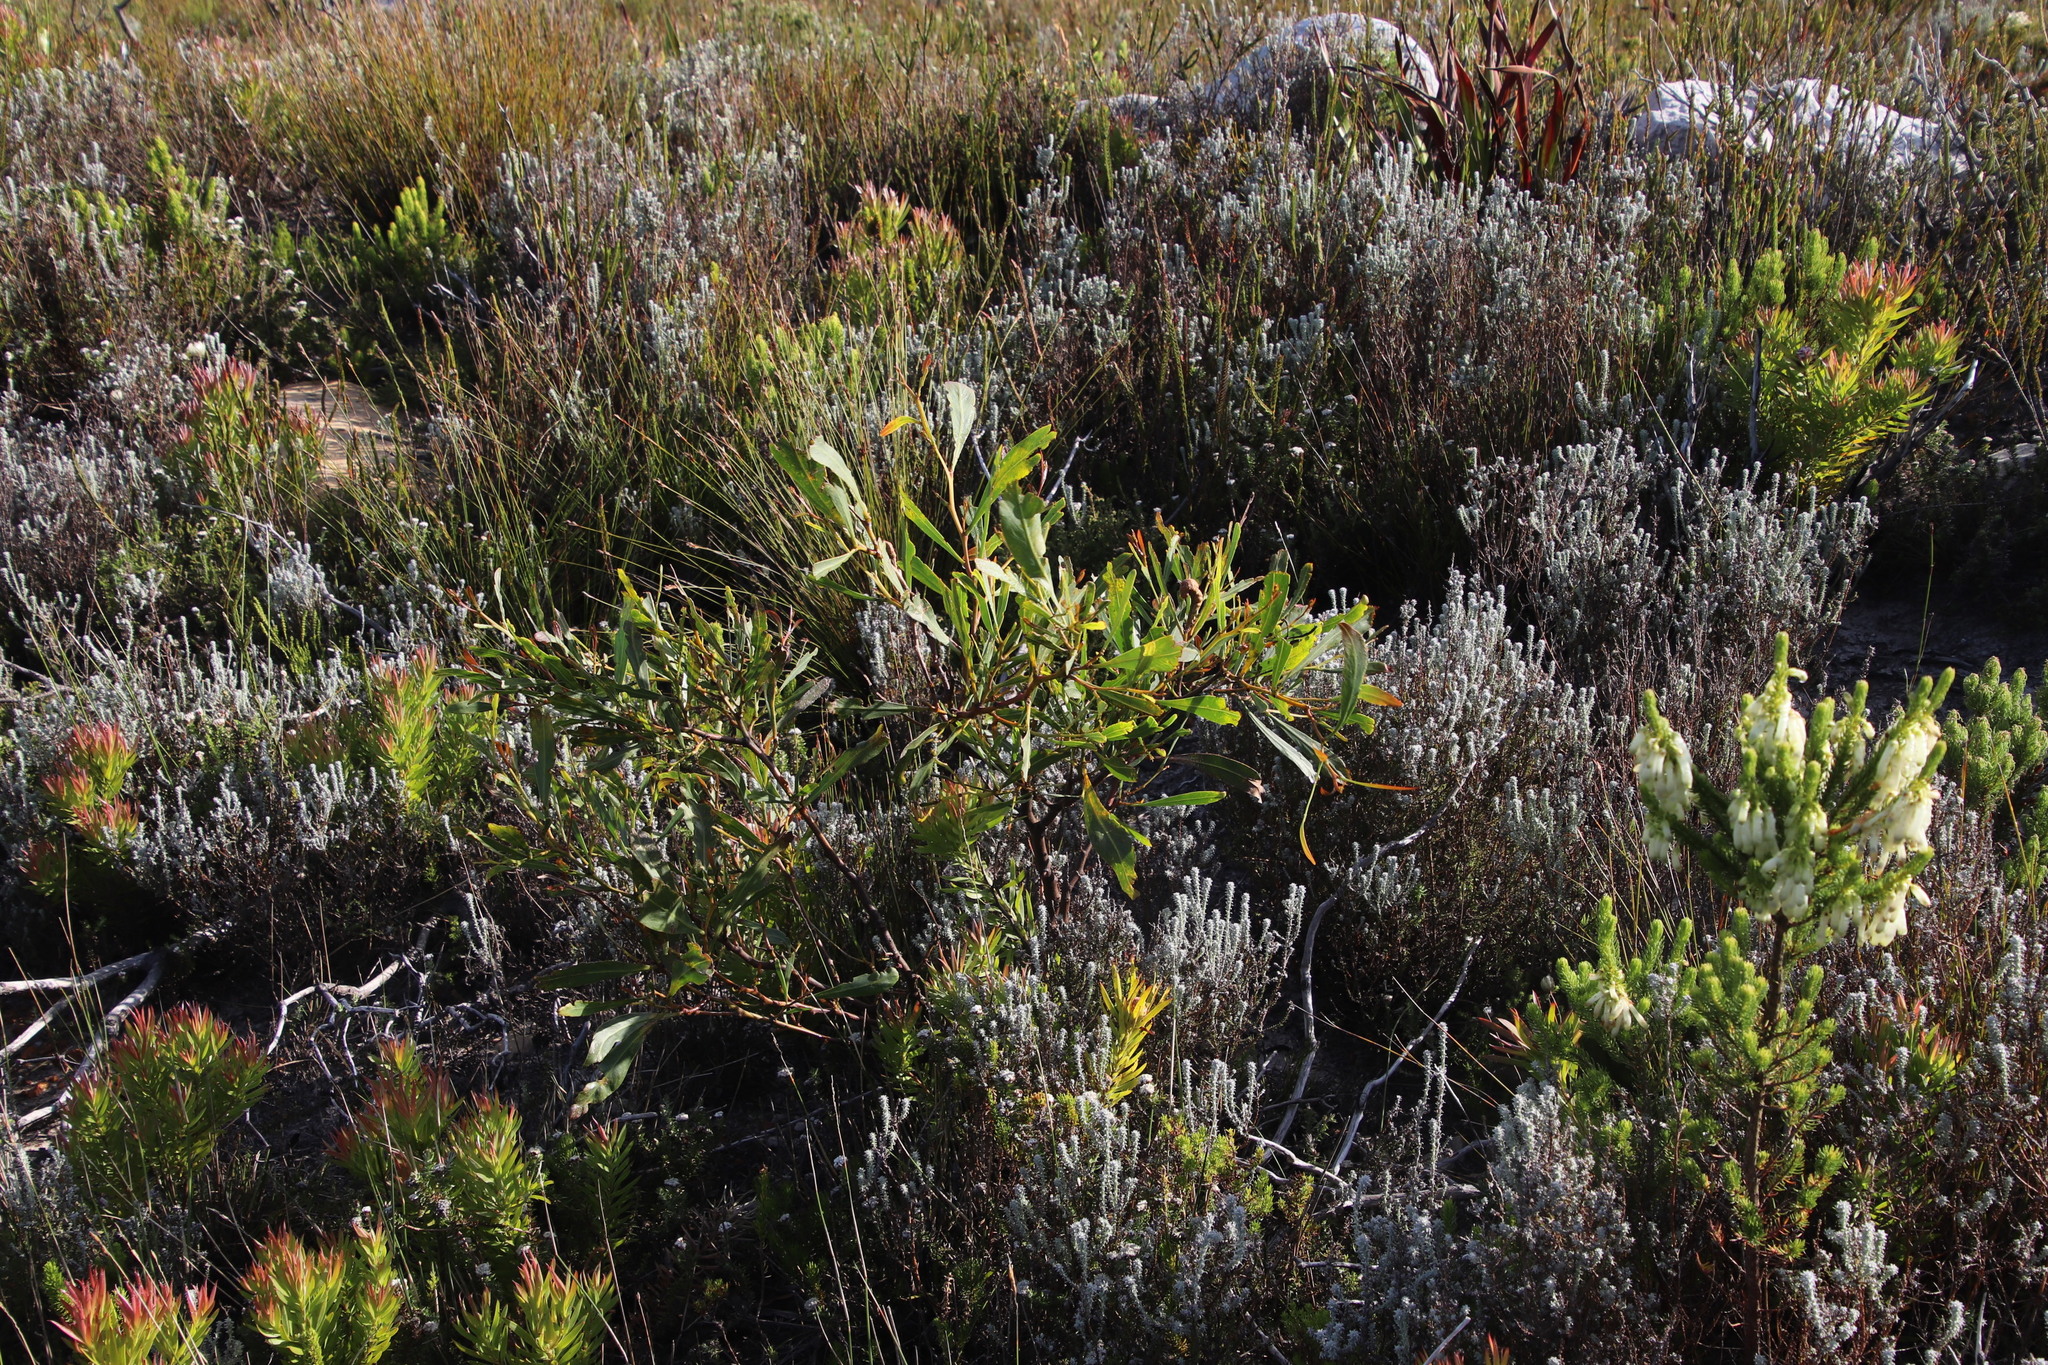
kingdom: Plantae
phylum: Tracheophyta
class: Magnoliopsida
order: Fabales
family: Fabaceae
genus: Acacia
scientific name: Acacia saligna
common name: Orange wattle
